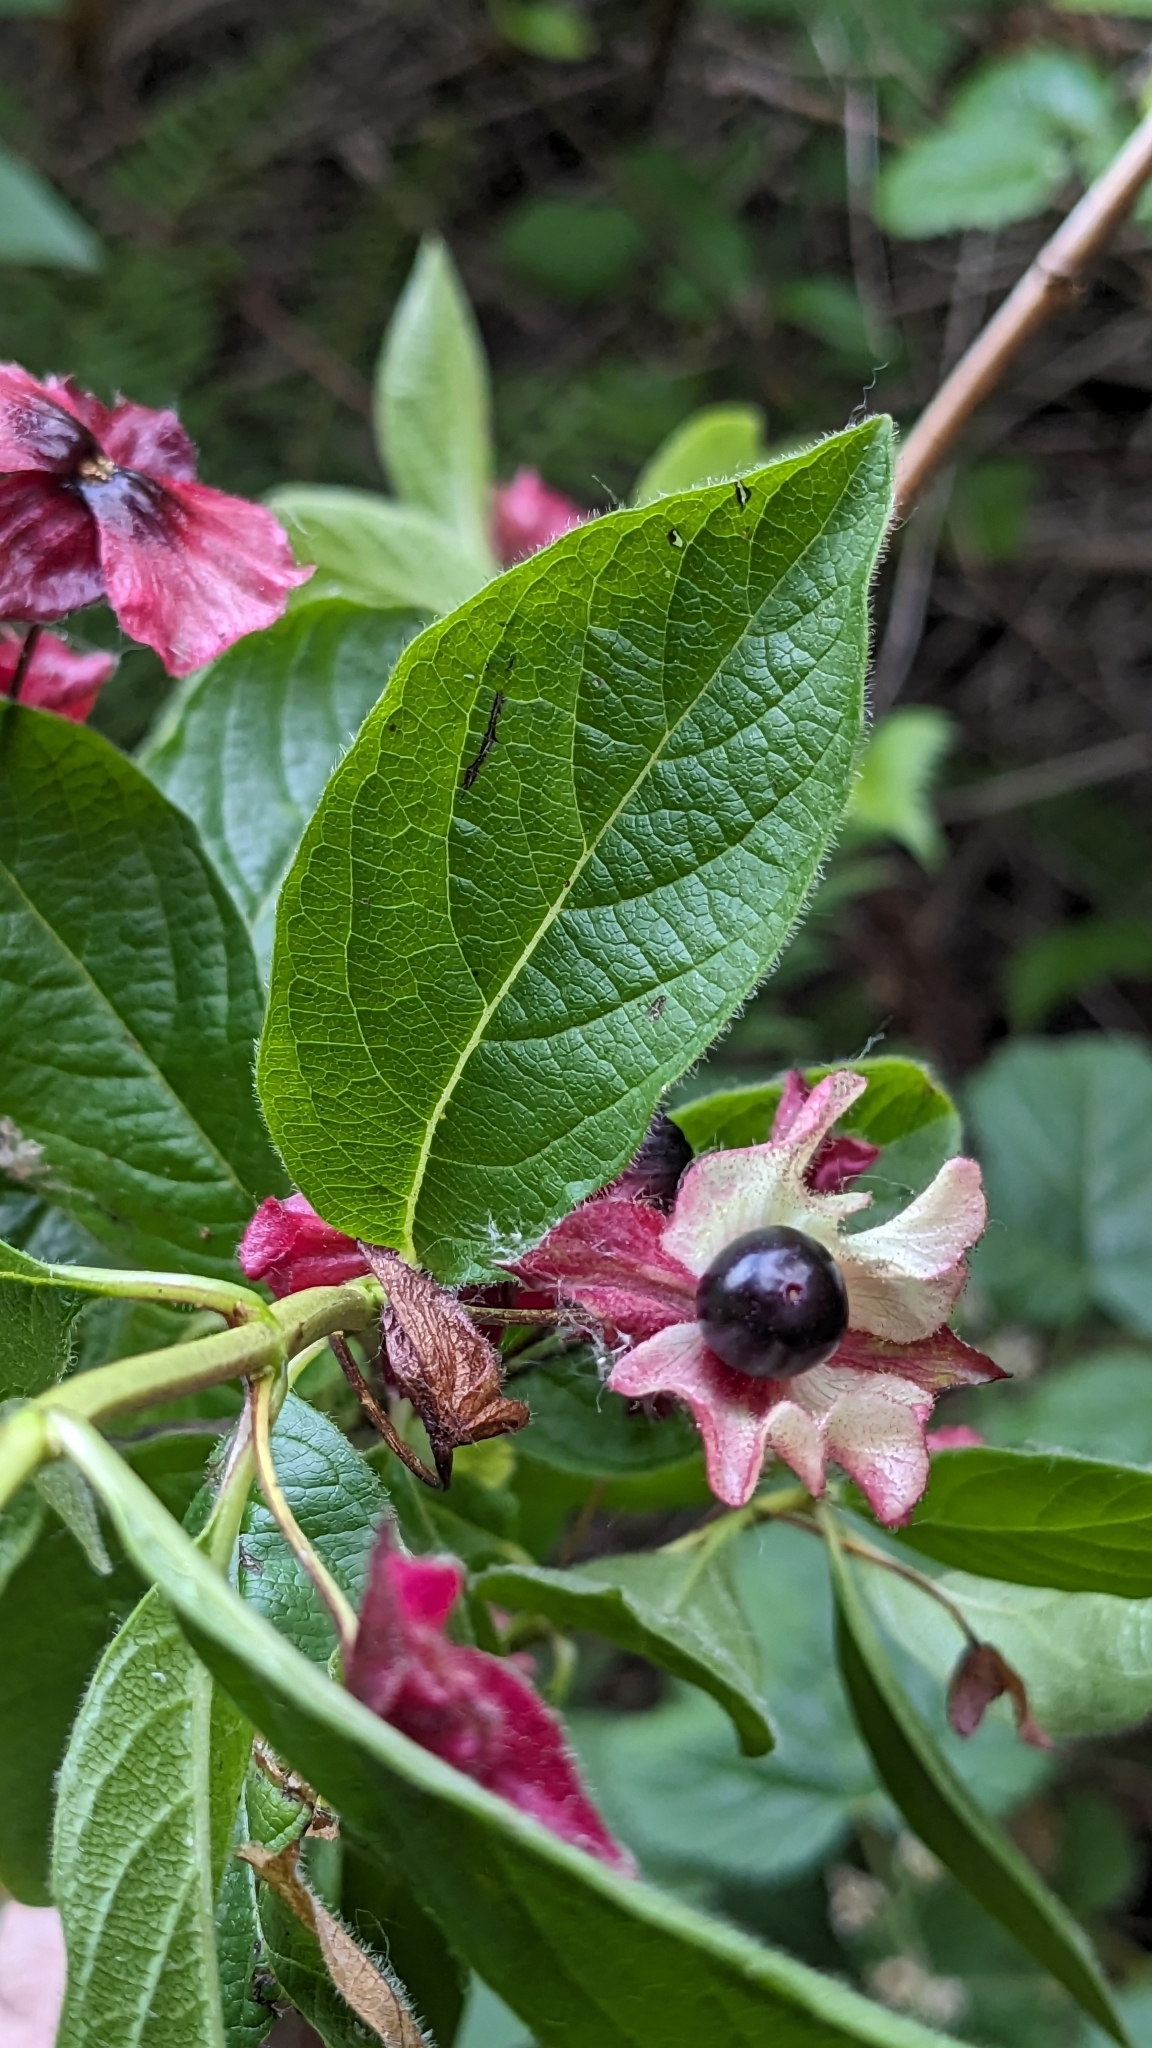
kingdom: Plantae
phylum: Tracheophyta
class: Magnoliopsida
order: Dipsacales
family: Caprifoliaceae
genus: Lonicera
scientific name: Lonicera involucrata
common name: Californian honeysuckle
